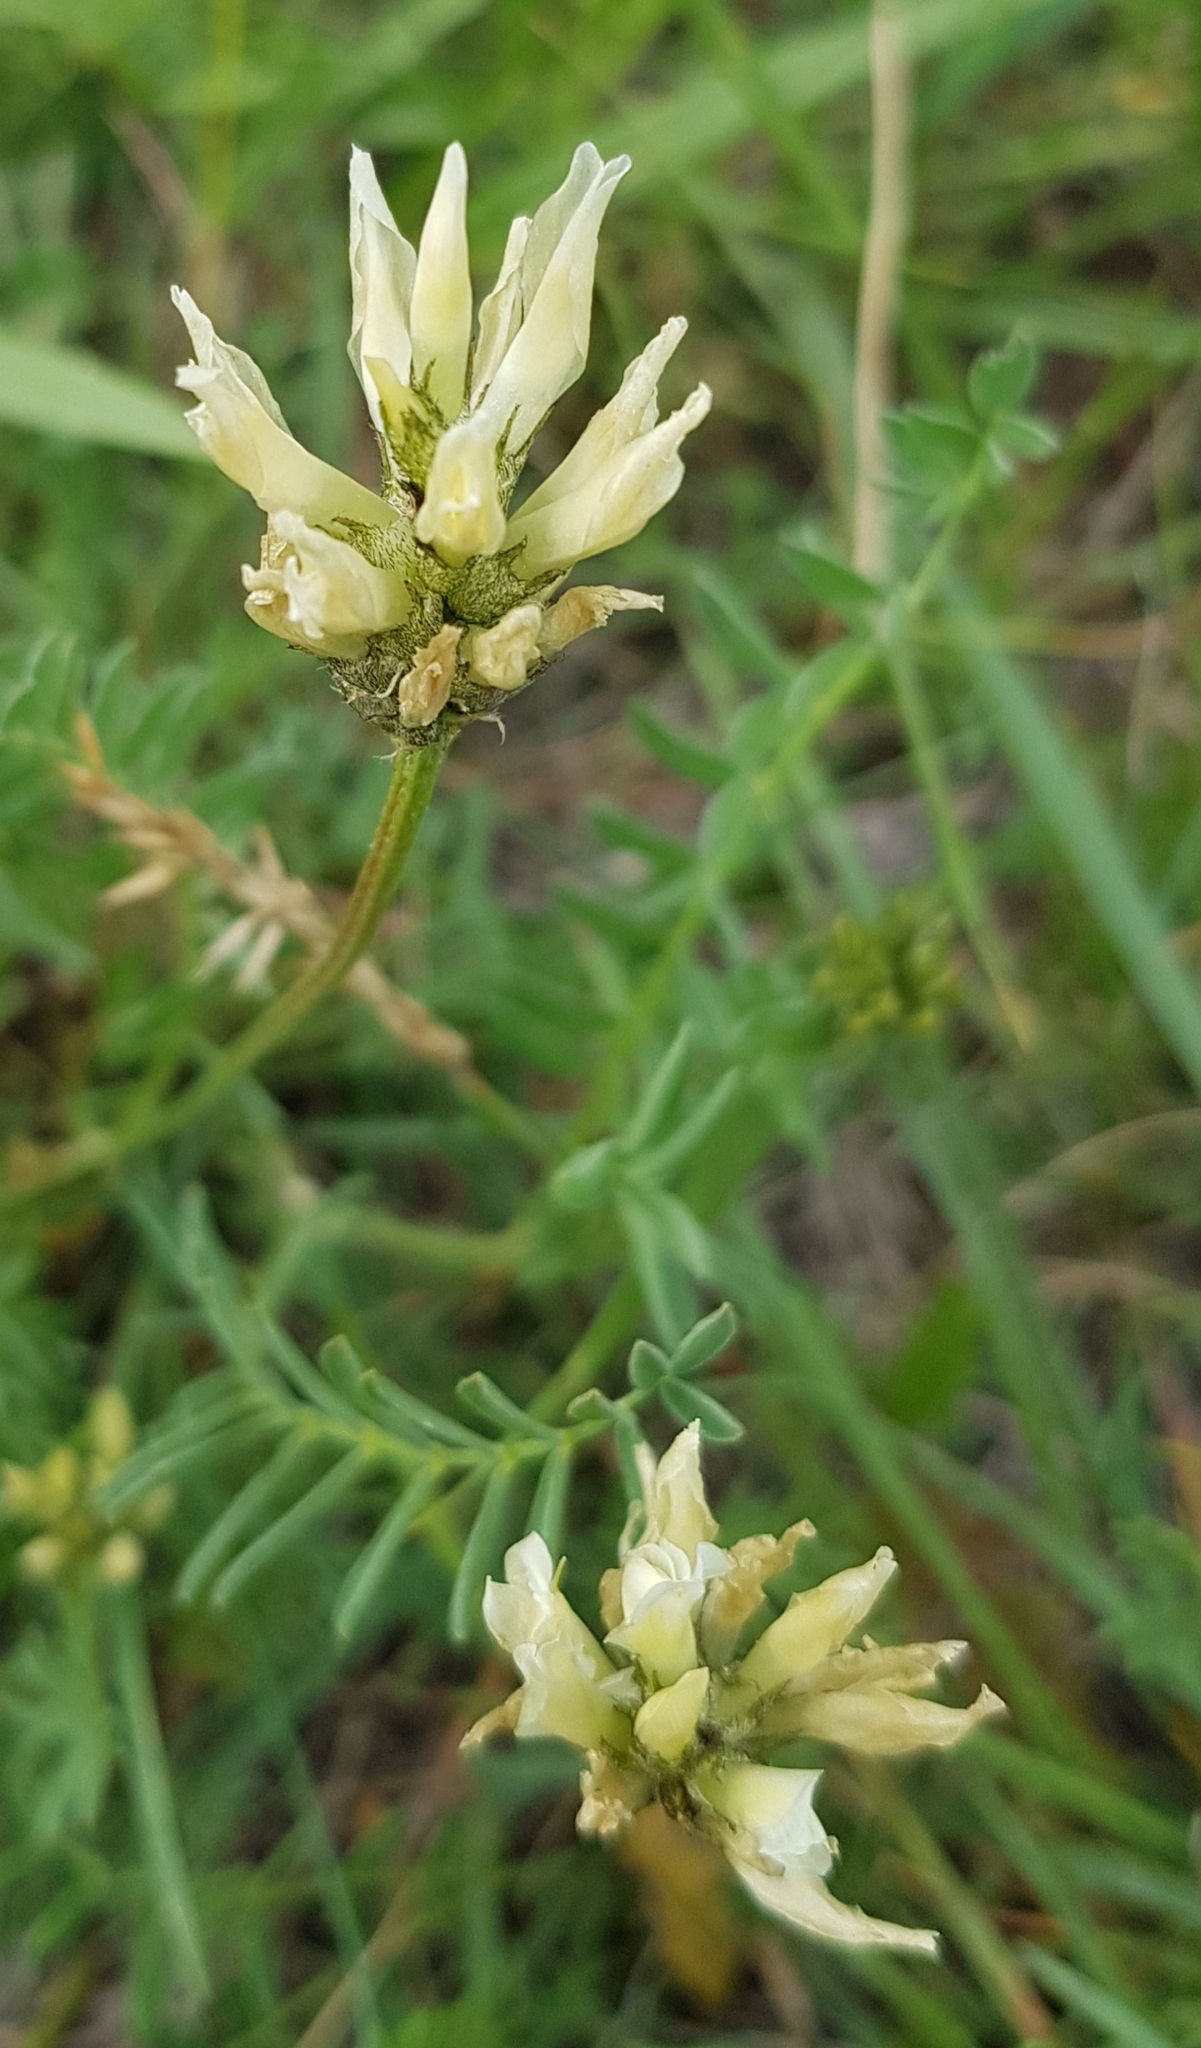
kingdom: Plantae
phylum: Tracheophyta
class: Magnoliopsida
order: Fabales
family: Fabaceae
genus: Astragalus
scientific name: Astragalus laxmannii
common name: Laxmann's milk-vetch
